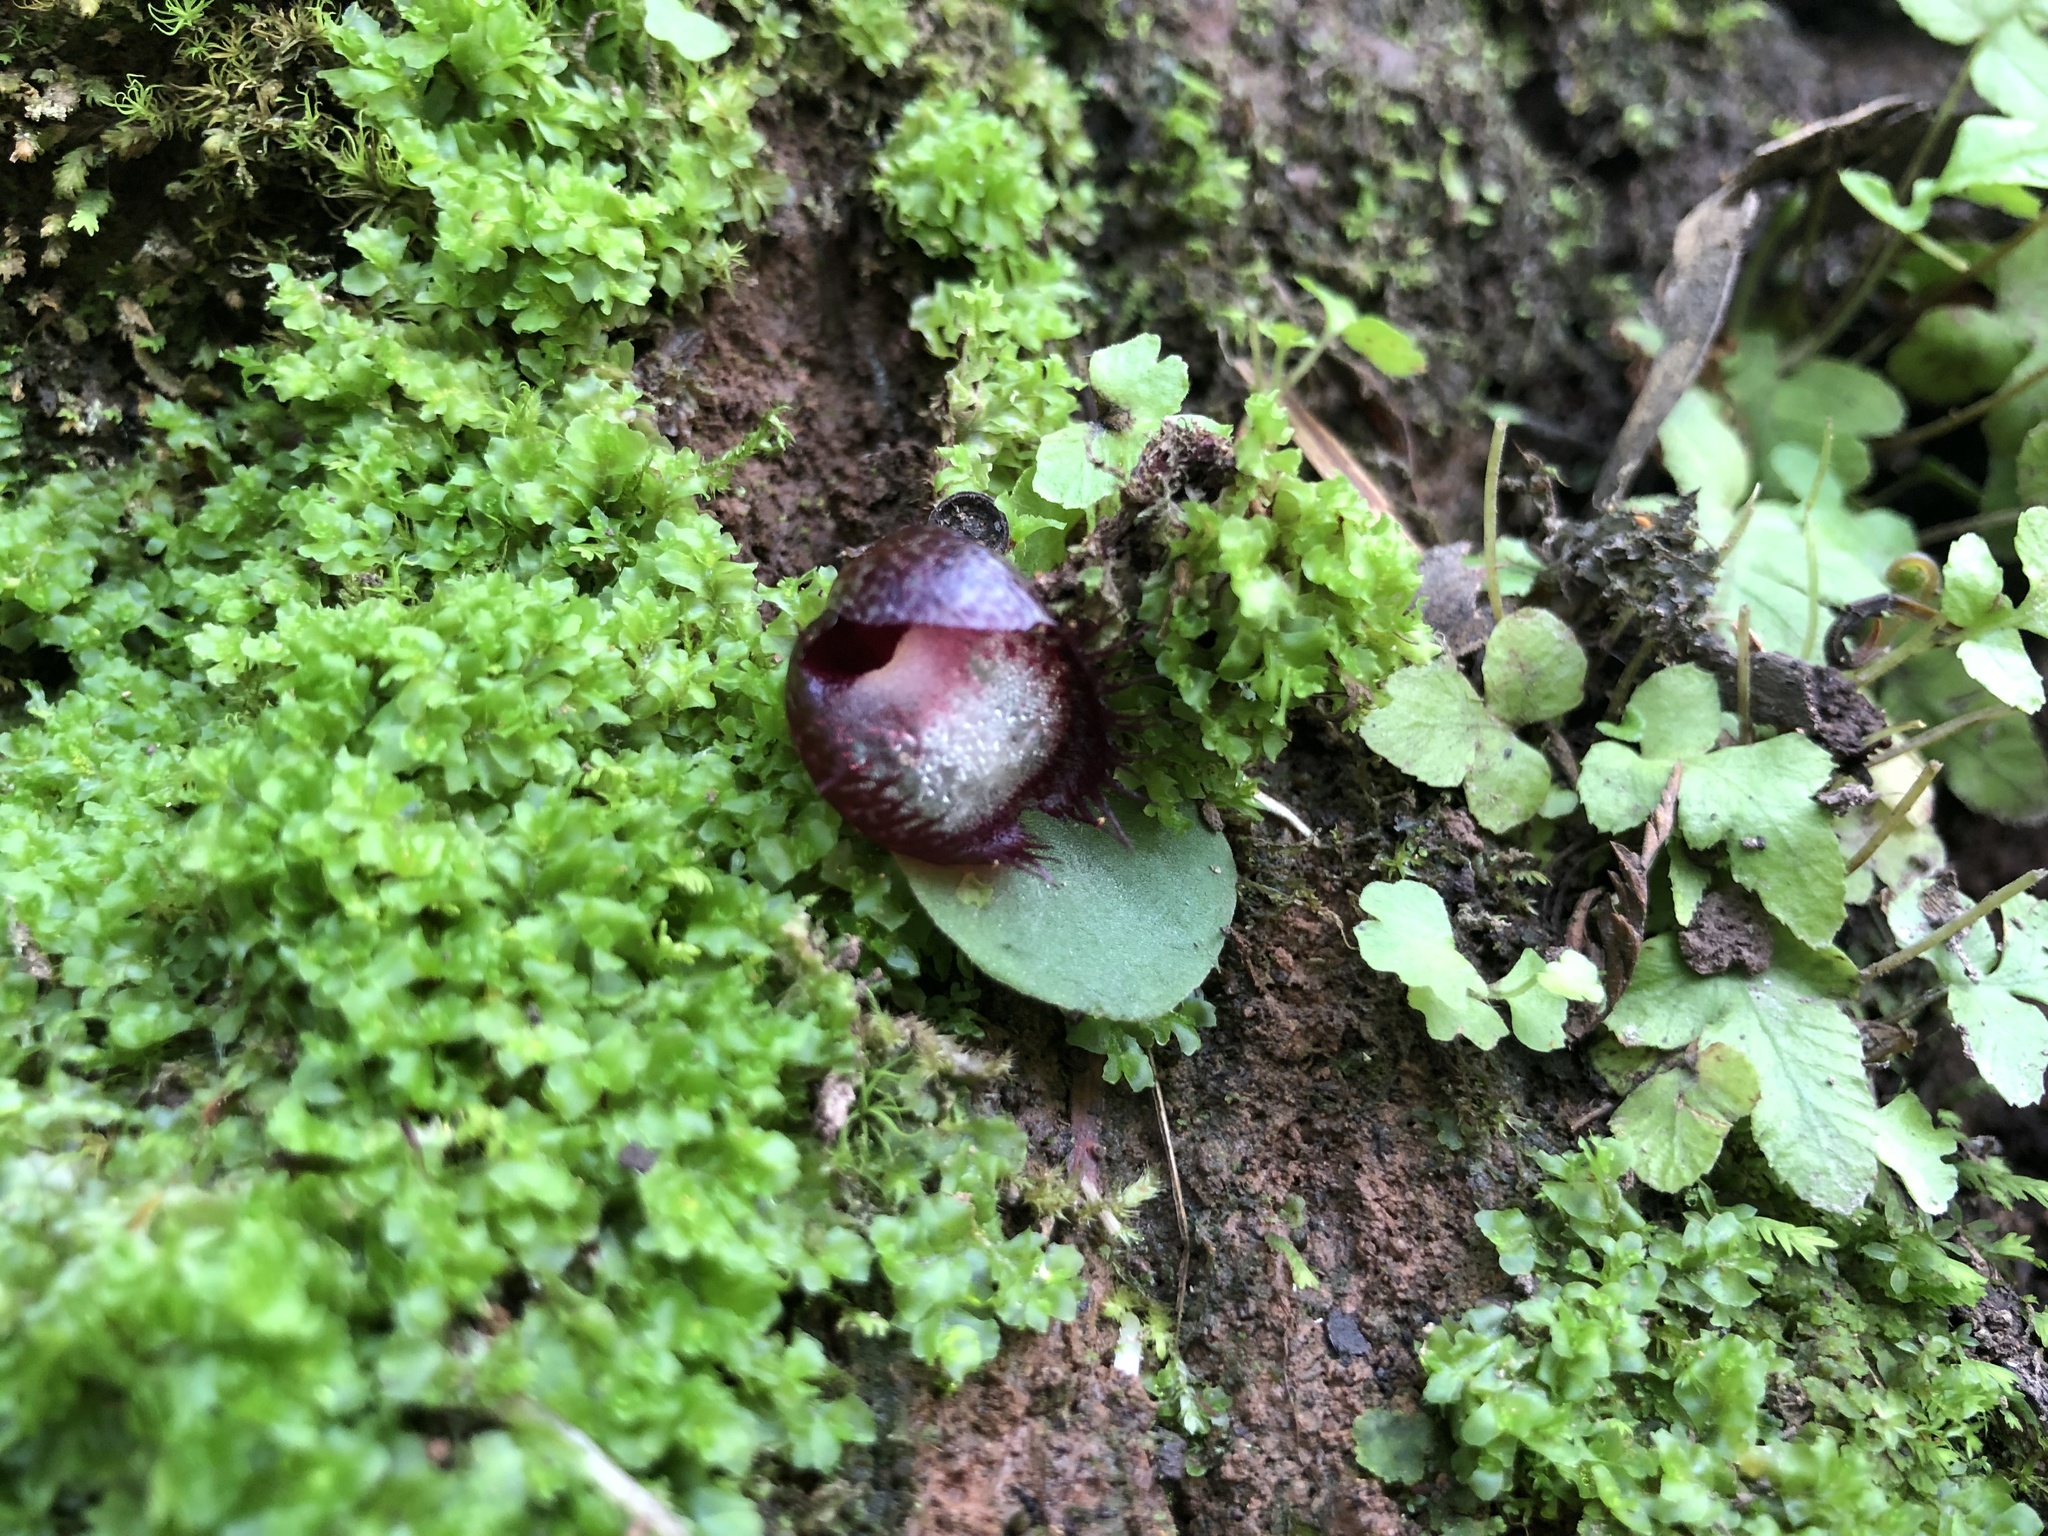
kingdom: Plantae
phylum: Tracheophyta
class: Liliopsida
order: Asparagales
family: Orchidaceae
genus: Corybas
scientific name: Corybas hispidus
